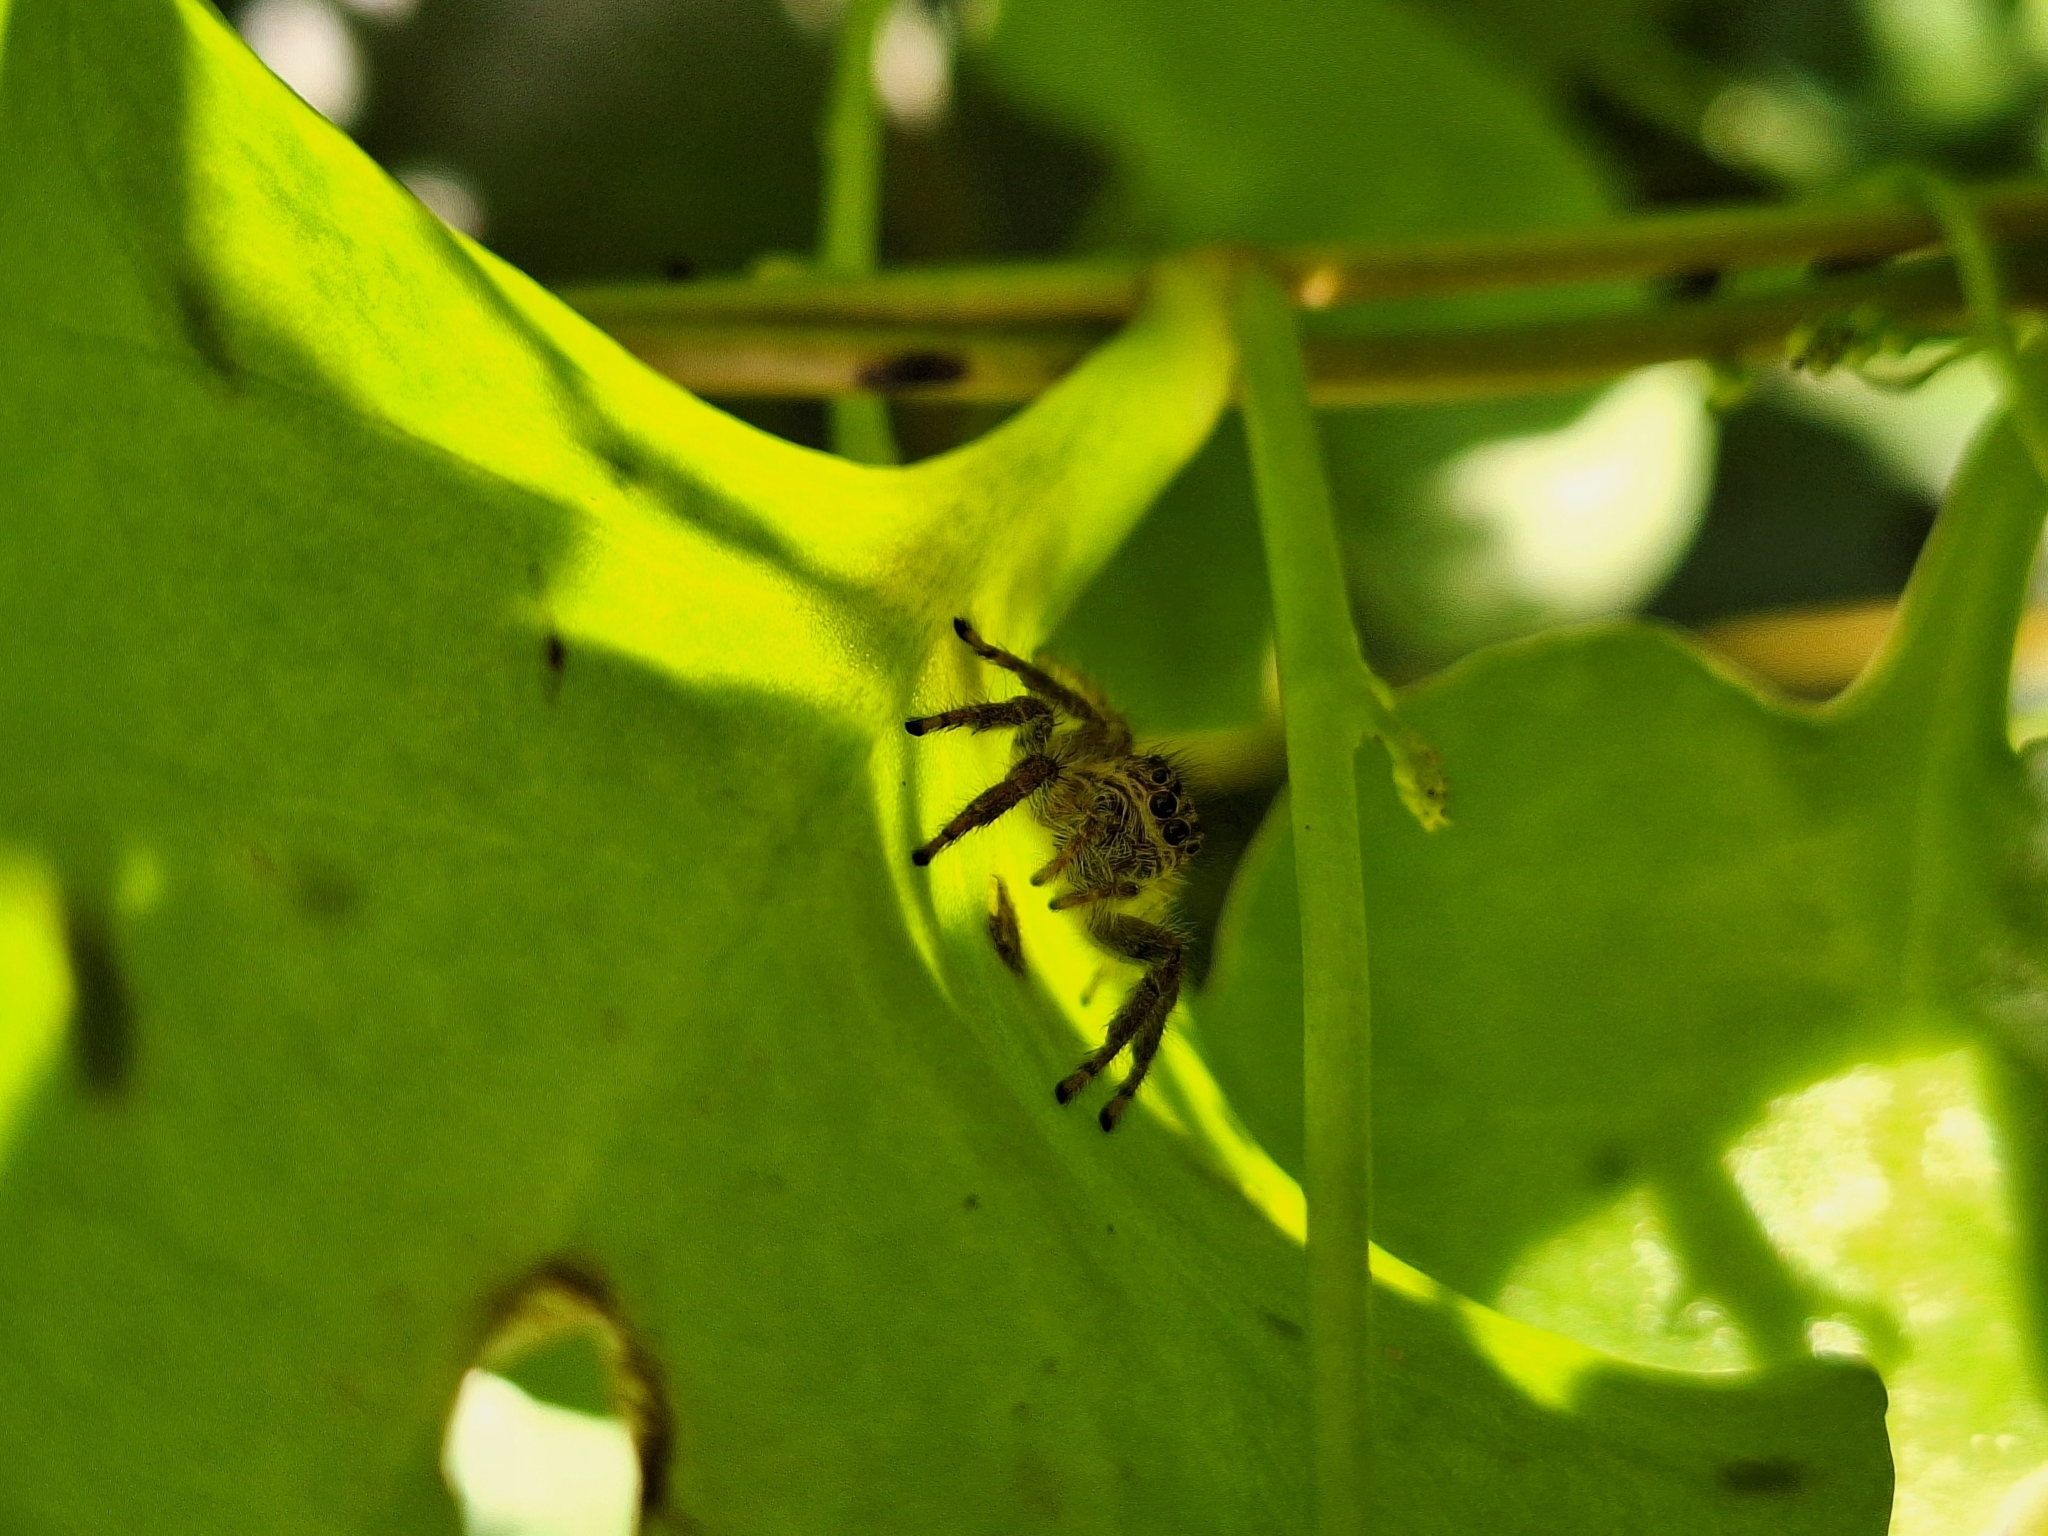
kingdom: Animalia
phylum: Arthropoda
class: Arachnida
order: Araneae
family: Salticidae
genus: Megafreya
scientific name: Megafreya sutrix
